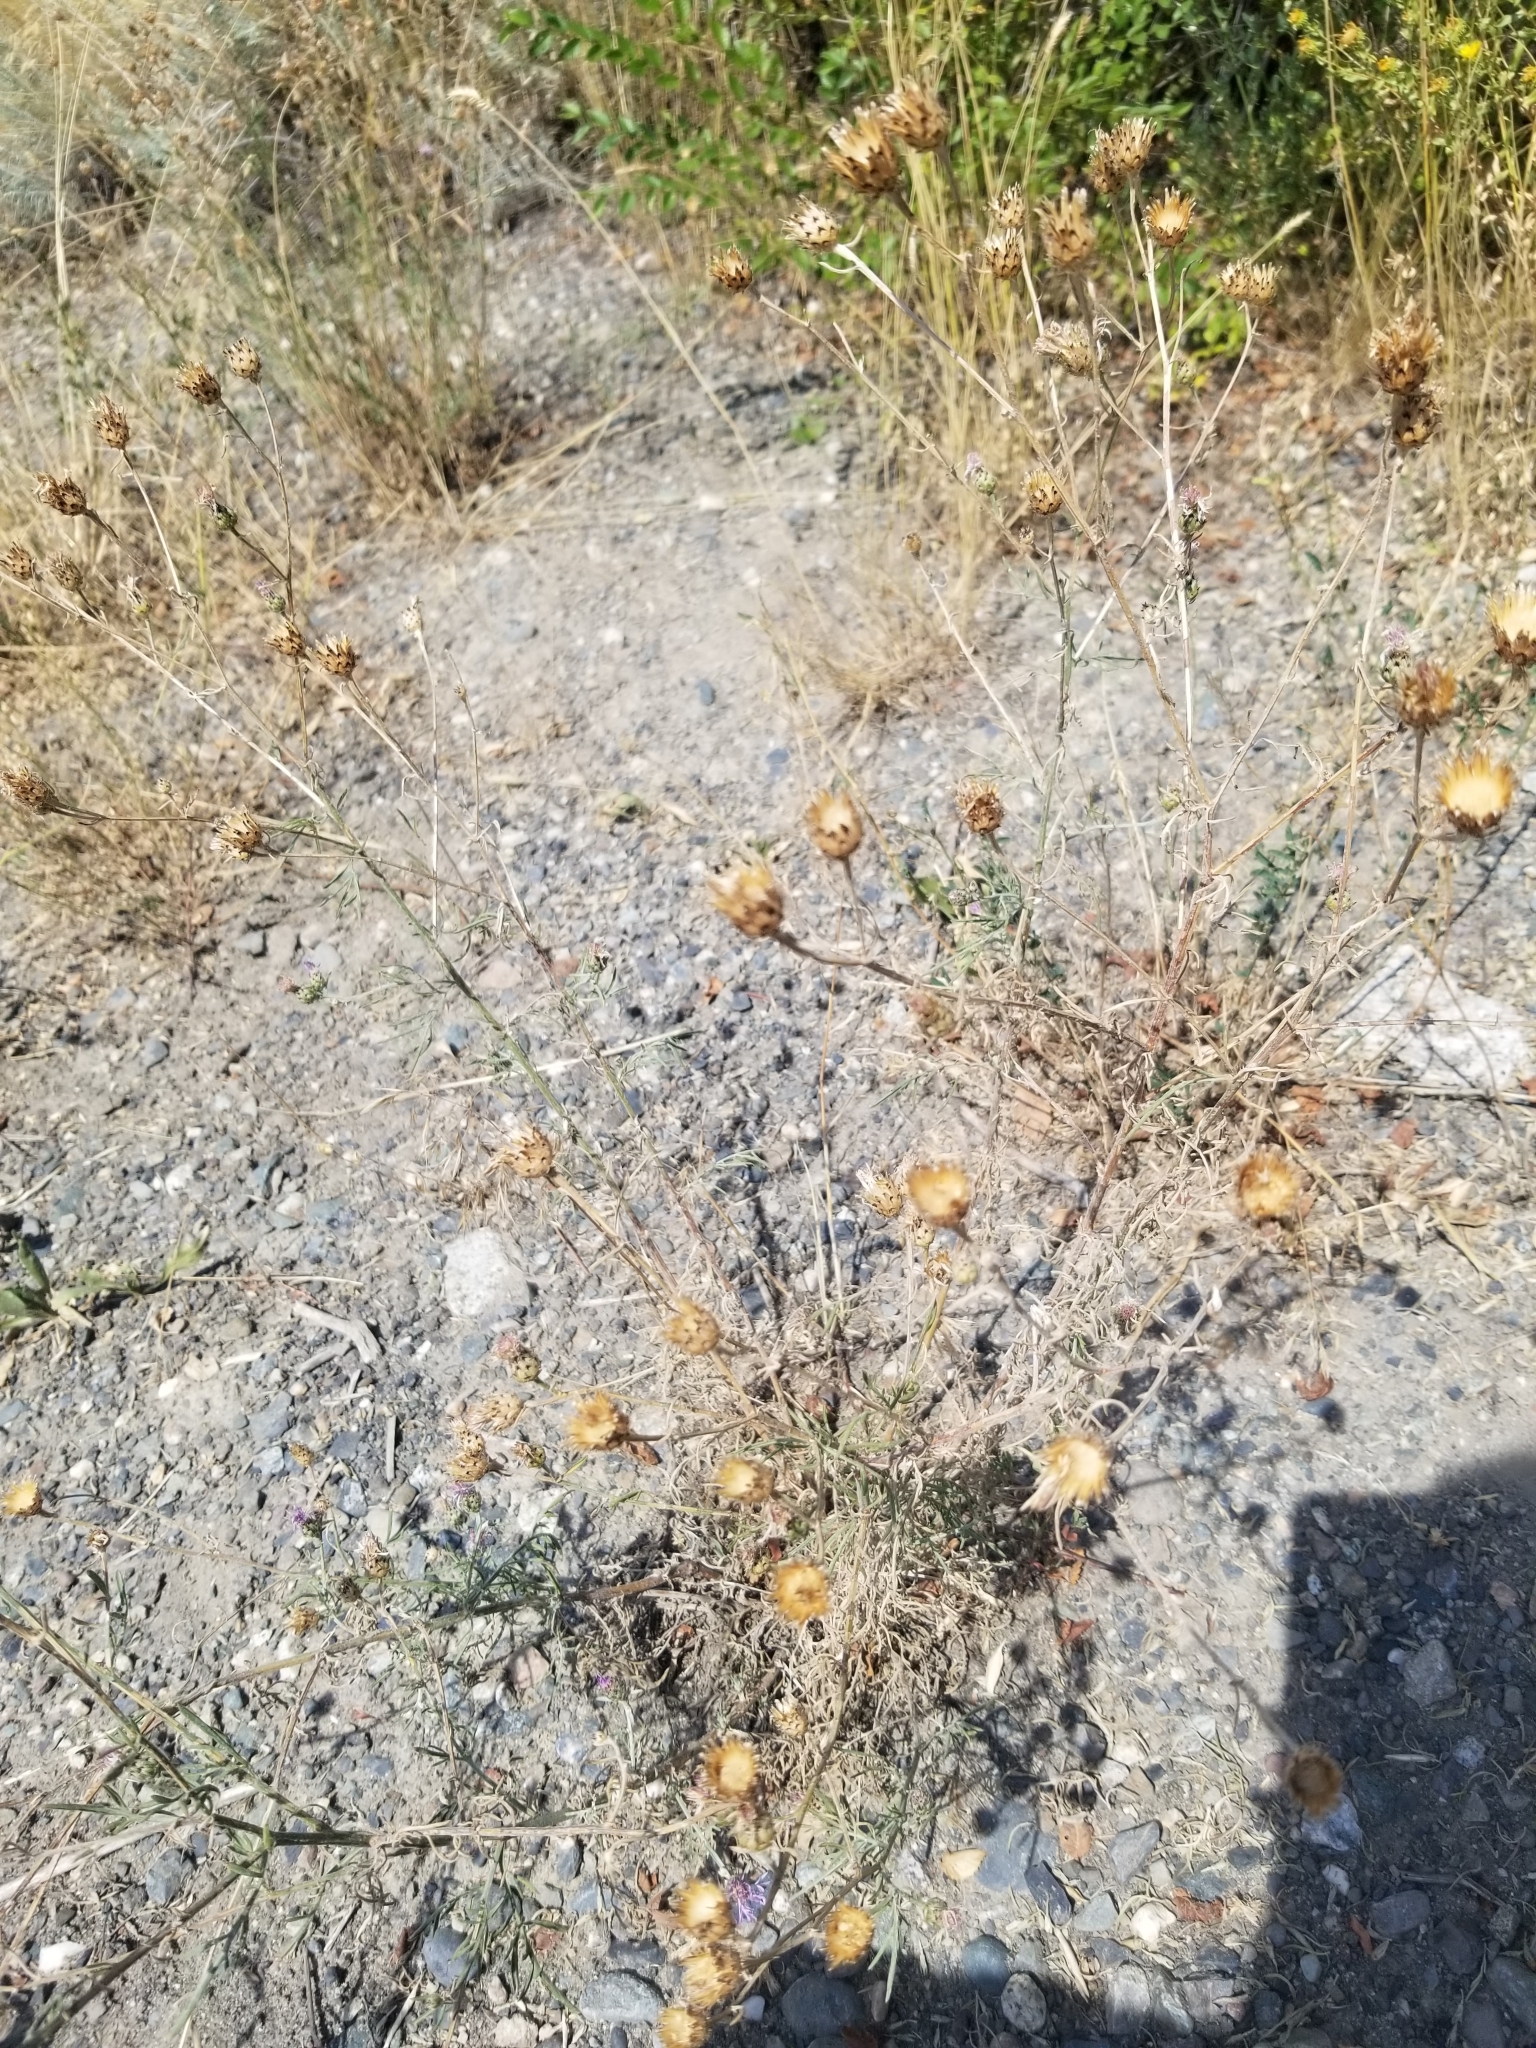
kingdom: Plantae
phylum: Tracheophyta
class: Magnoliopsida
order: Asterales
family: Asteraceae
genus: Centaurea
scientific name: Centaurea stoebe
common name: Spotted knapweed
